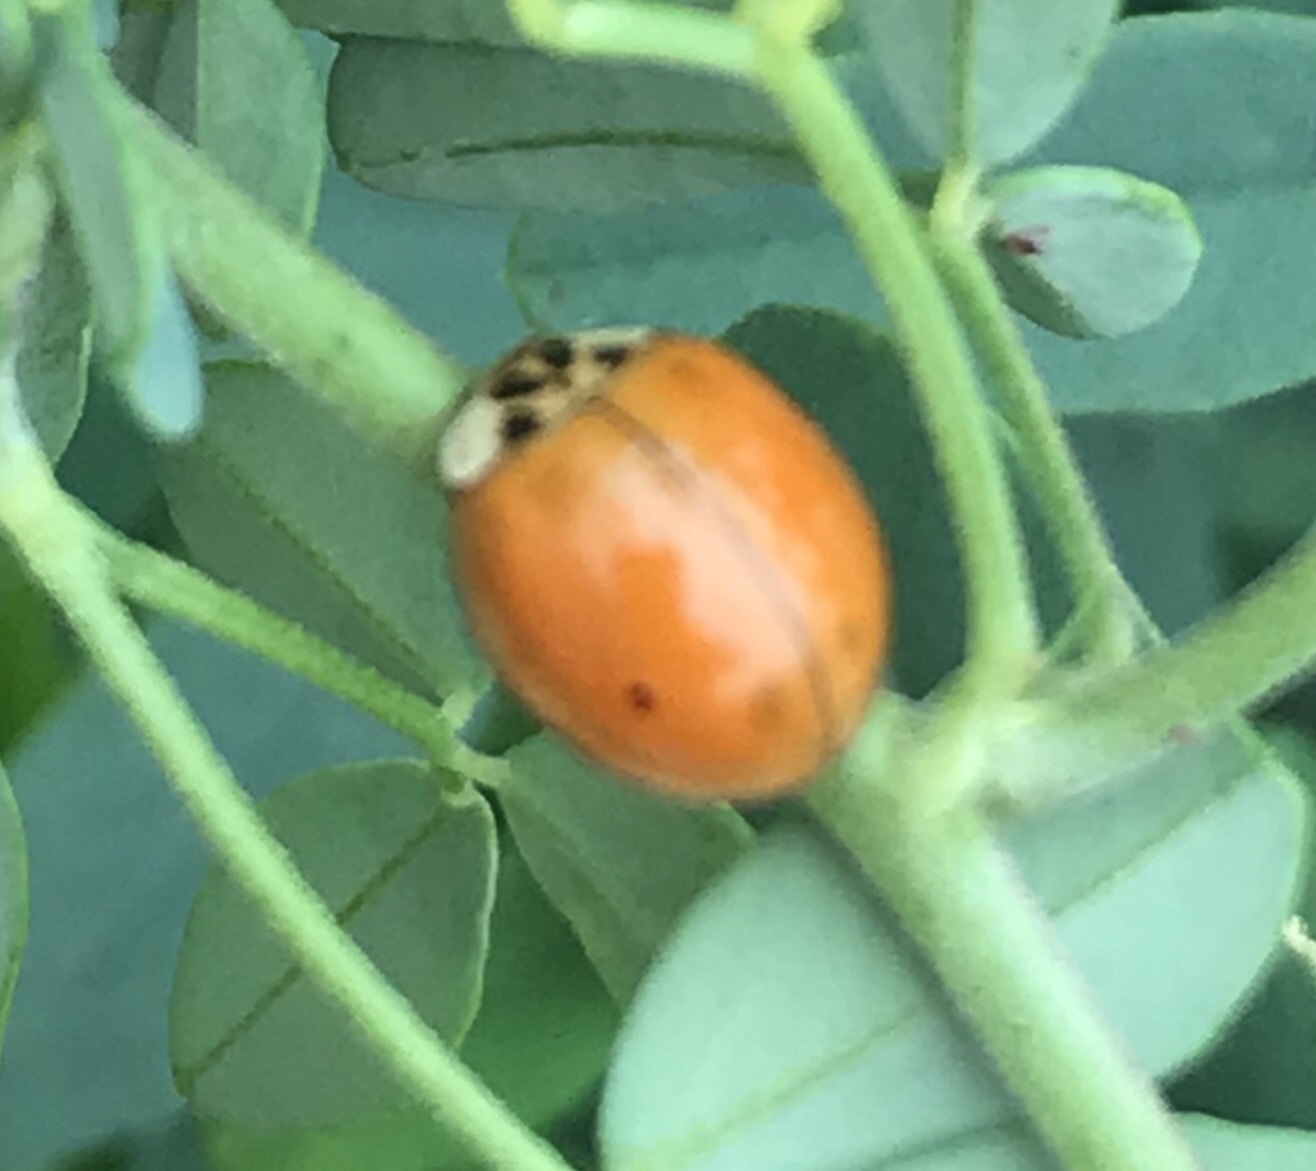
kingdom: Animalia
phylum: Arthropoda
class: Insecta
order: Coleoptera
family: Coccinellidae
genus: Harmonia
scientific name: Harmonia axyridis
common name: Harlequin ladybird
